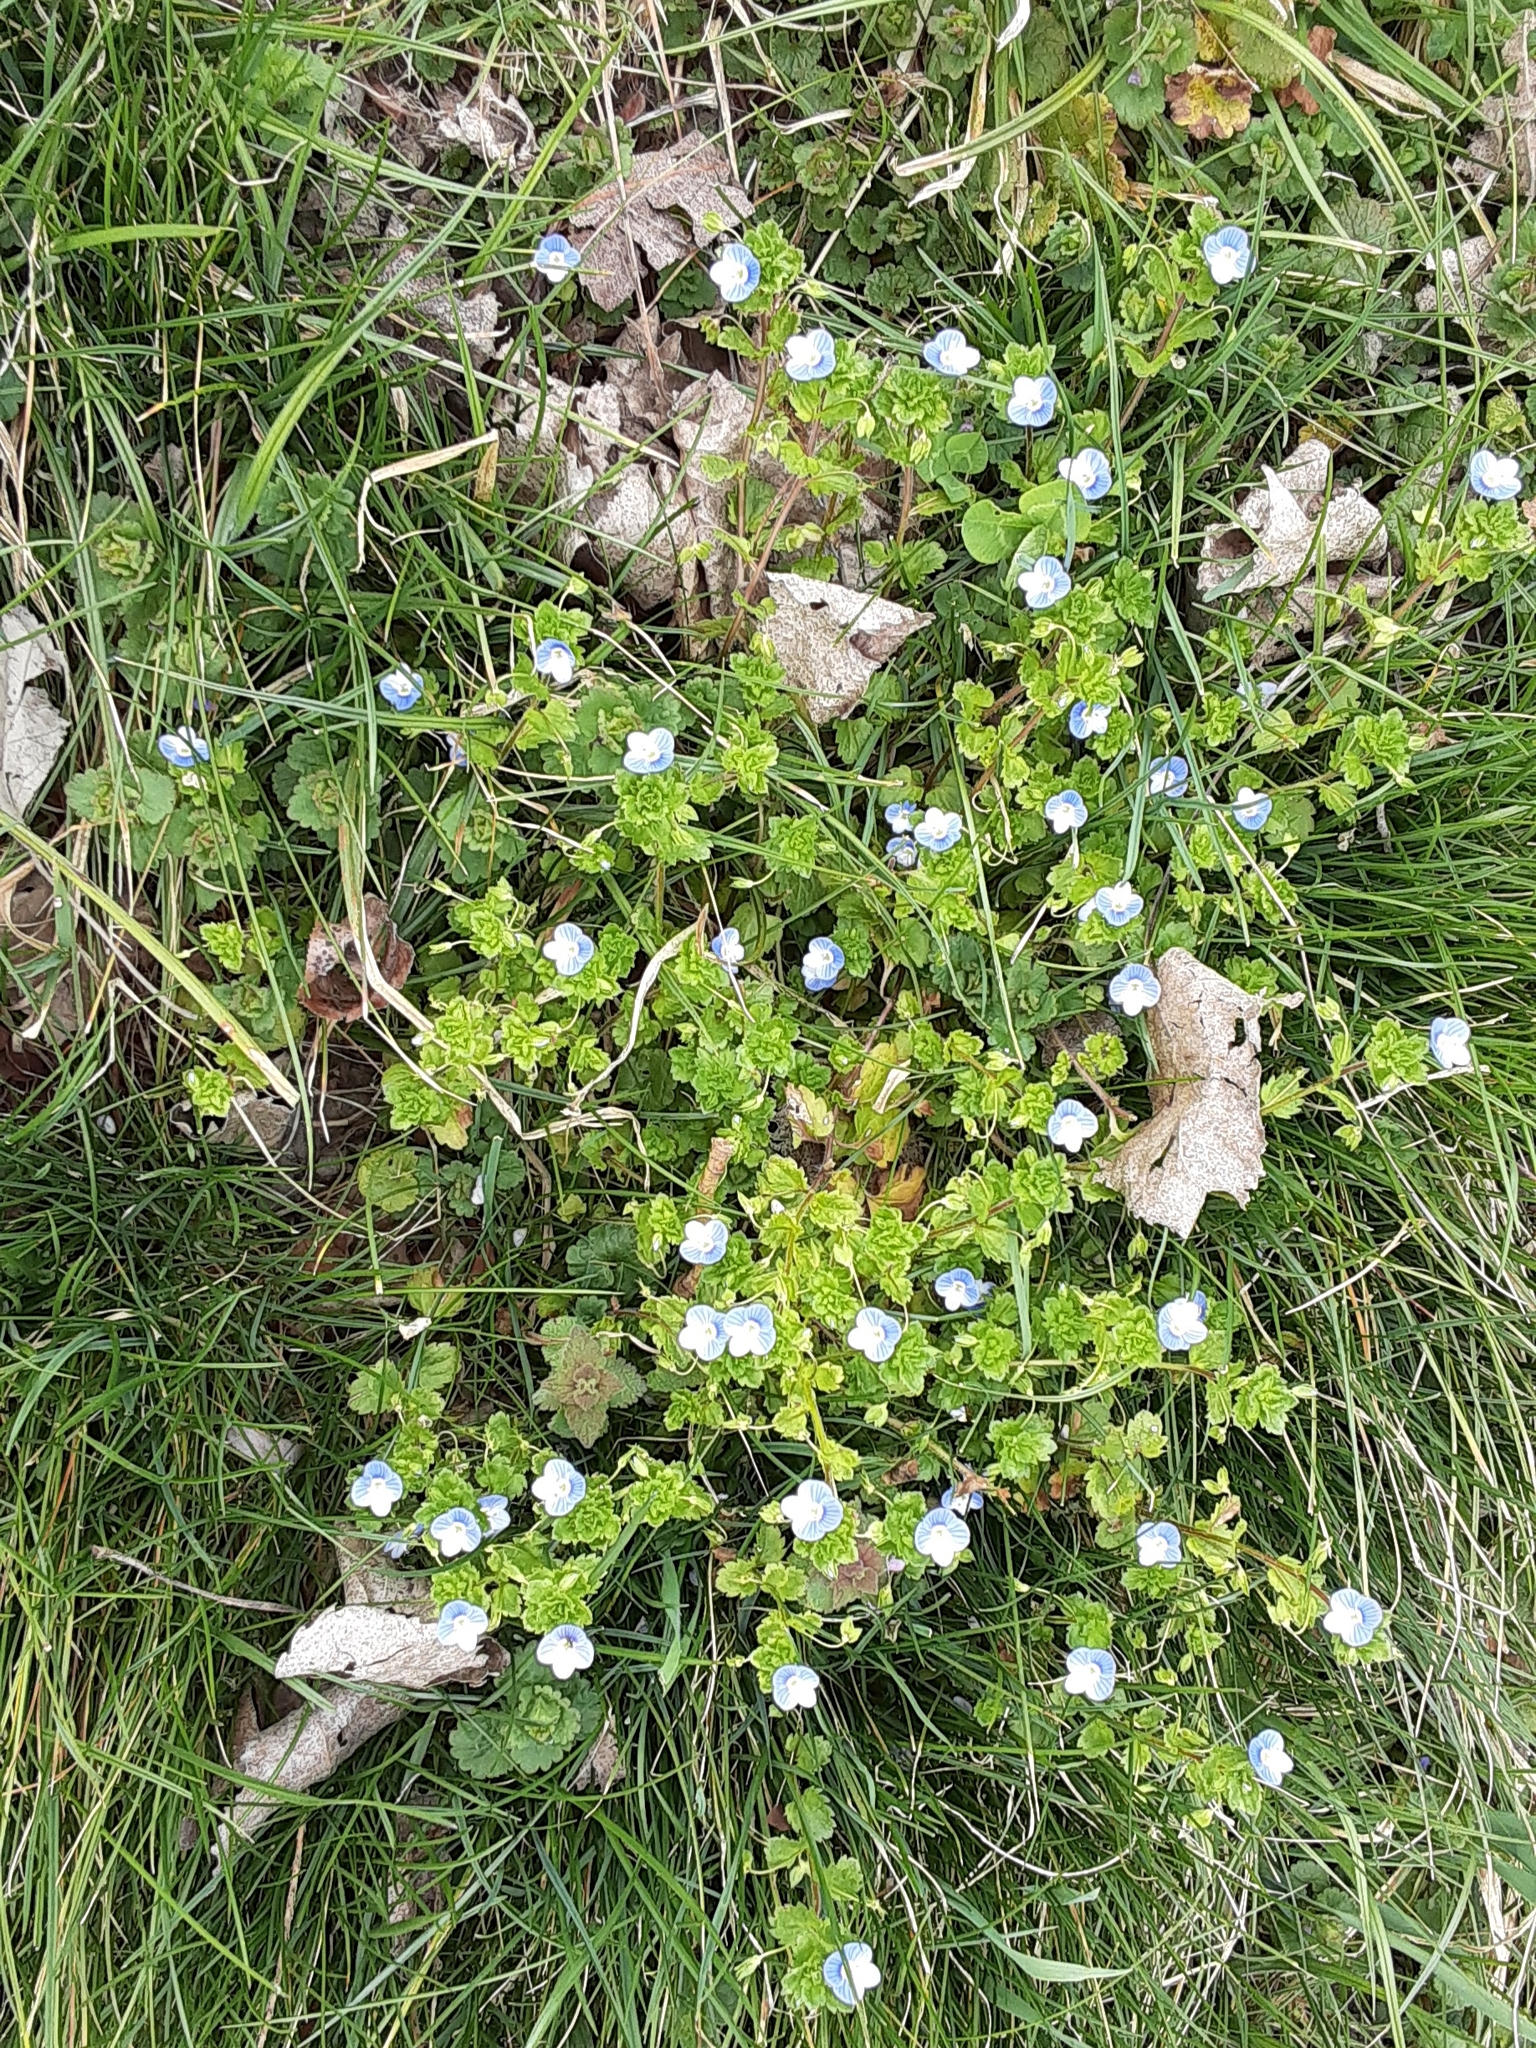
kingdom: Plantae
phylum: Tracheophyta
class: Magnoliopsida
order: Lamiales
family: Plantaginaceae
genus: Veronica
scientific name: Veronica persica
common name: Common field-speedwell
